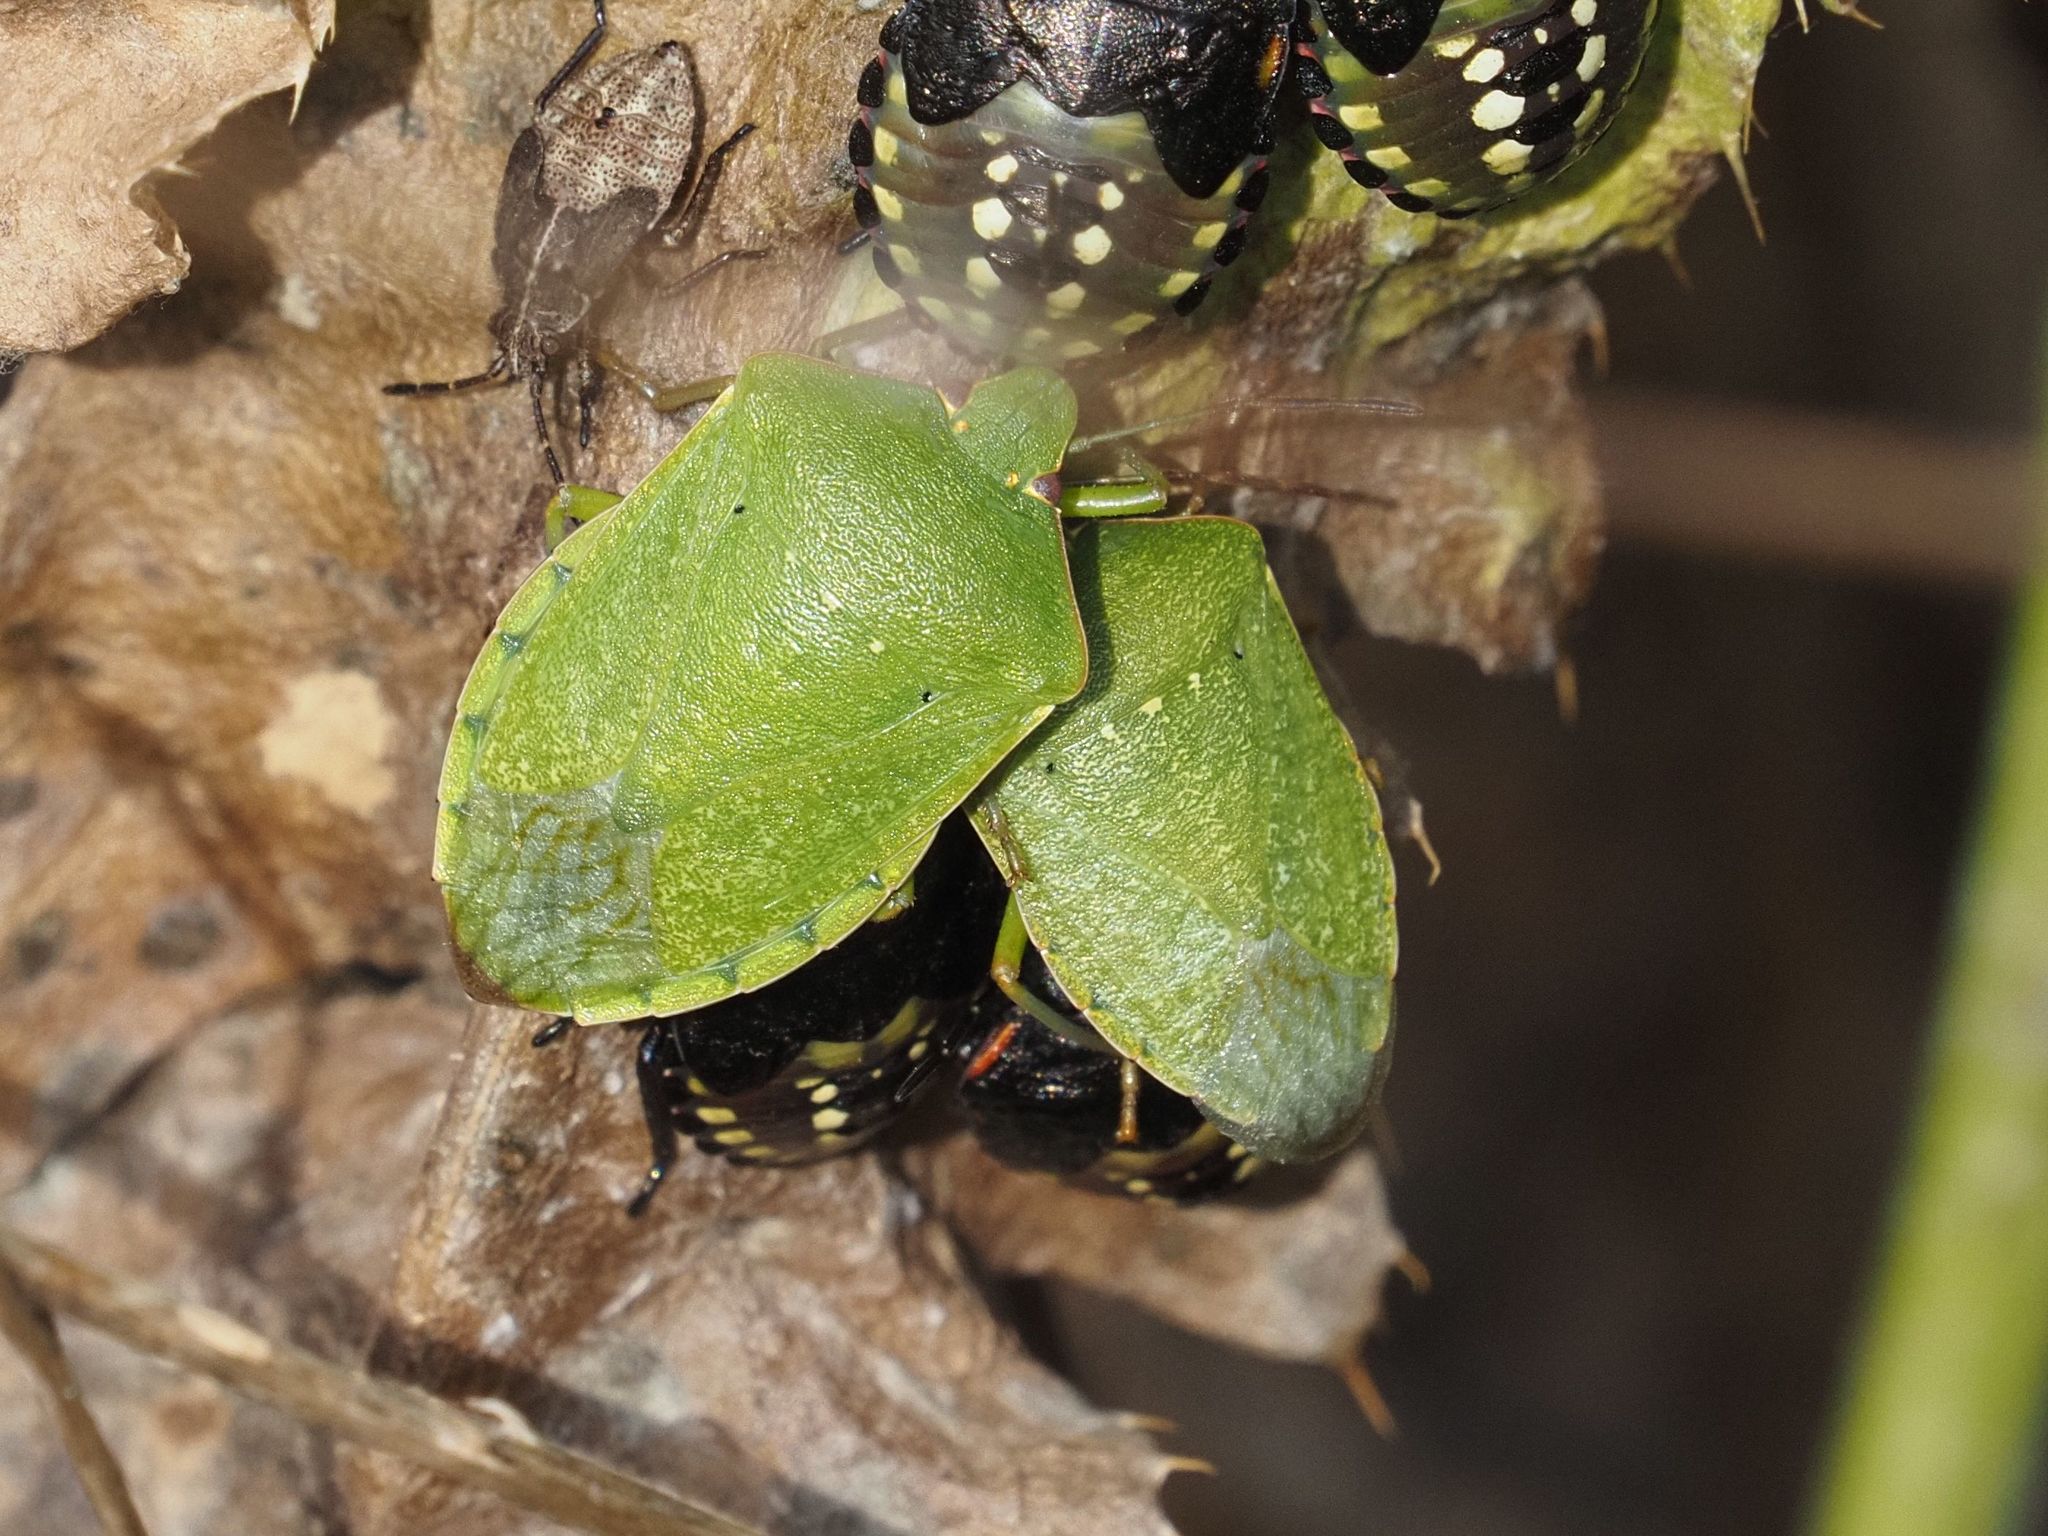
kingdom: Animalia
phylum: Arthropoda
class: Insecta
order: Hemiptera
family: Pentatomidae
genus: Nezara
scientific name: Nezara viridula
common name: Southern green stink bug
